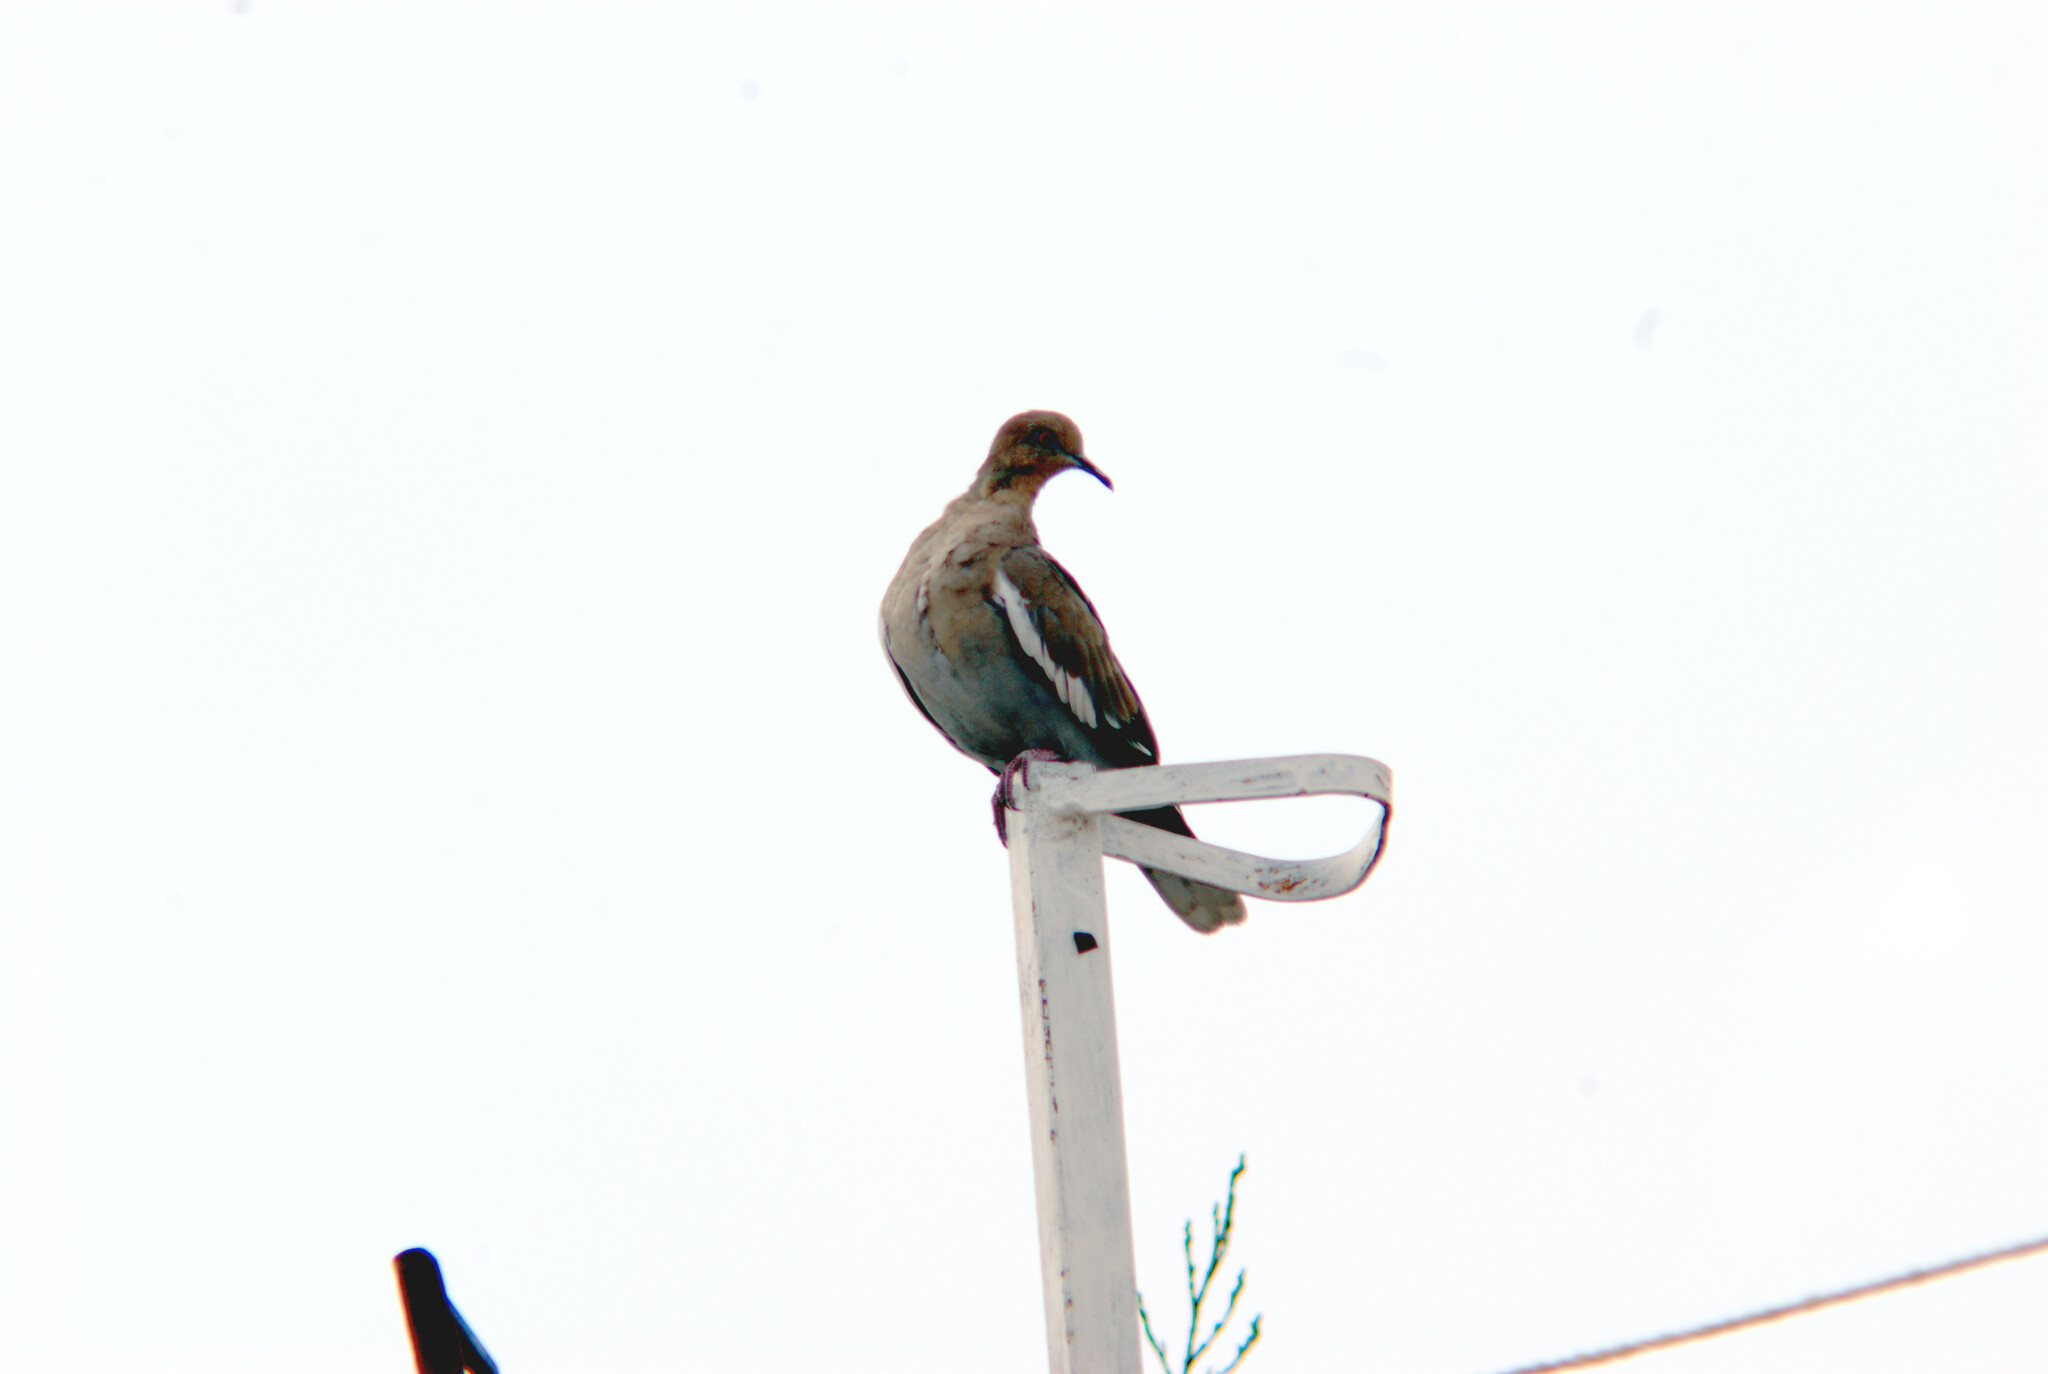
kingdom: Animalia
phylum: Chordata
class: Aves
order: Columbiformes
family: Columbidae
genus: Zenaida
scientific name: Zenaida asiatica
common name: White-winged dove
